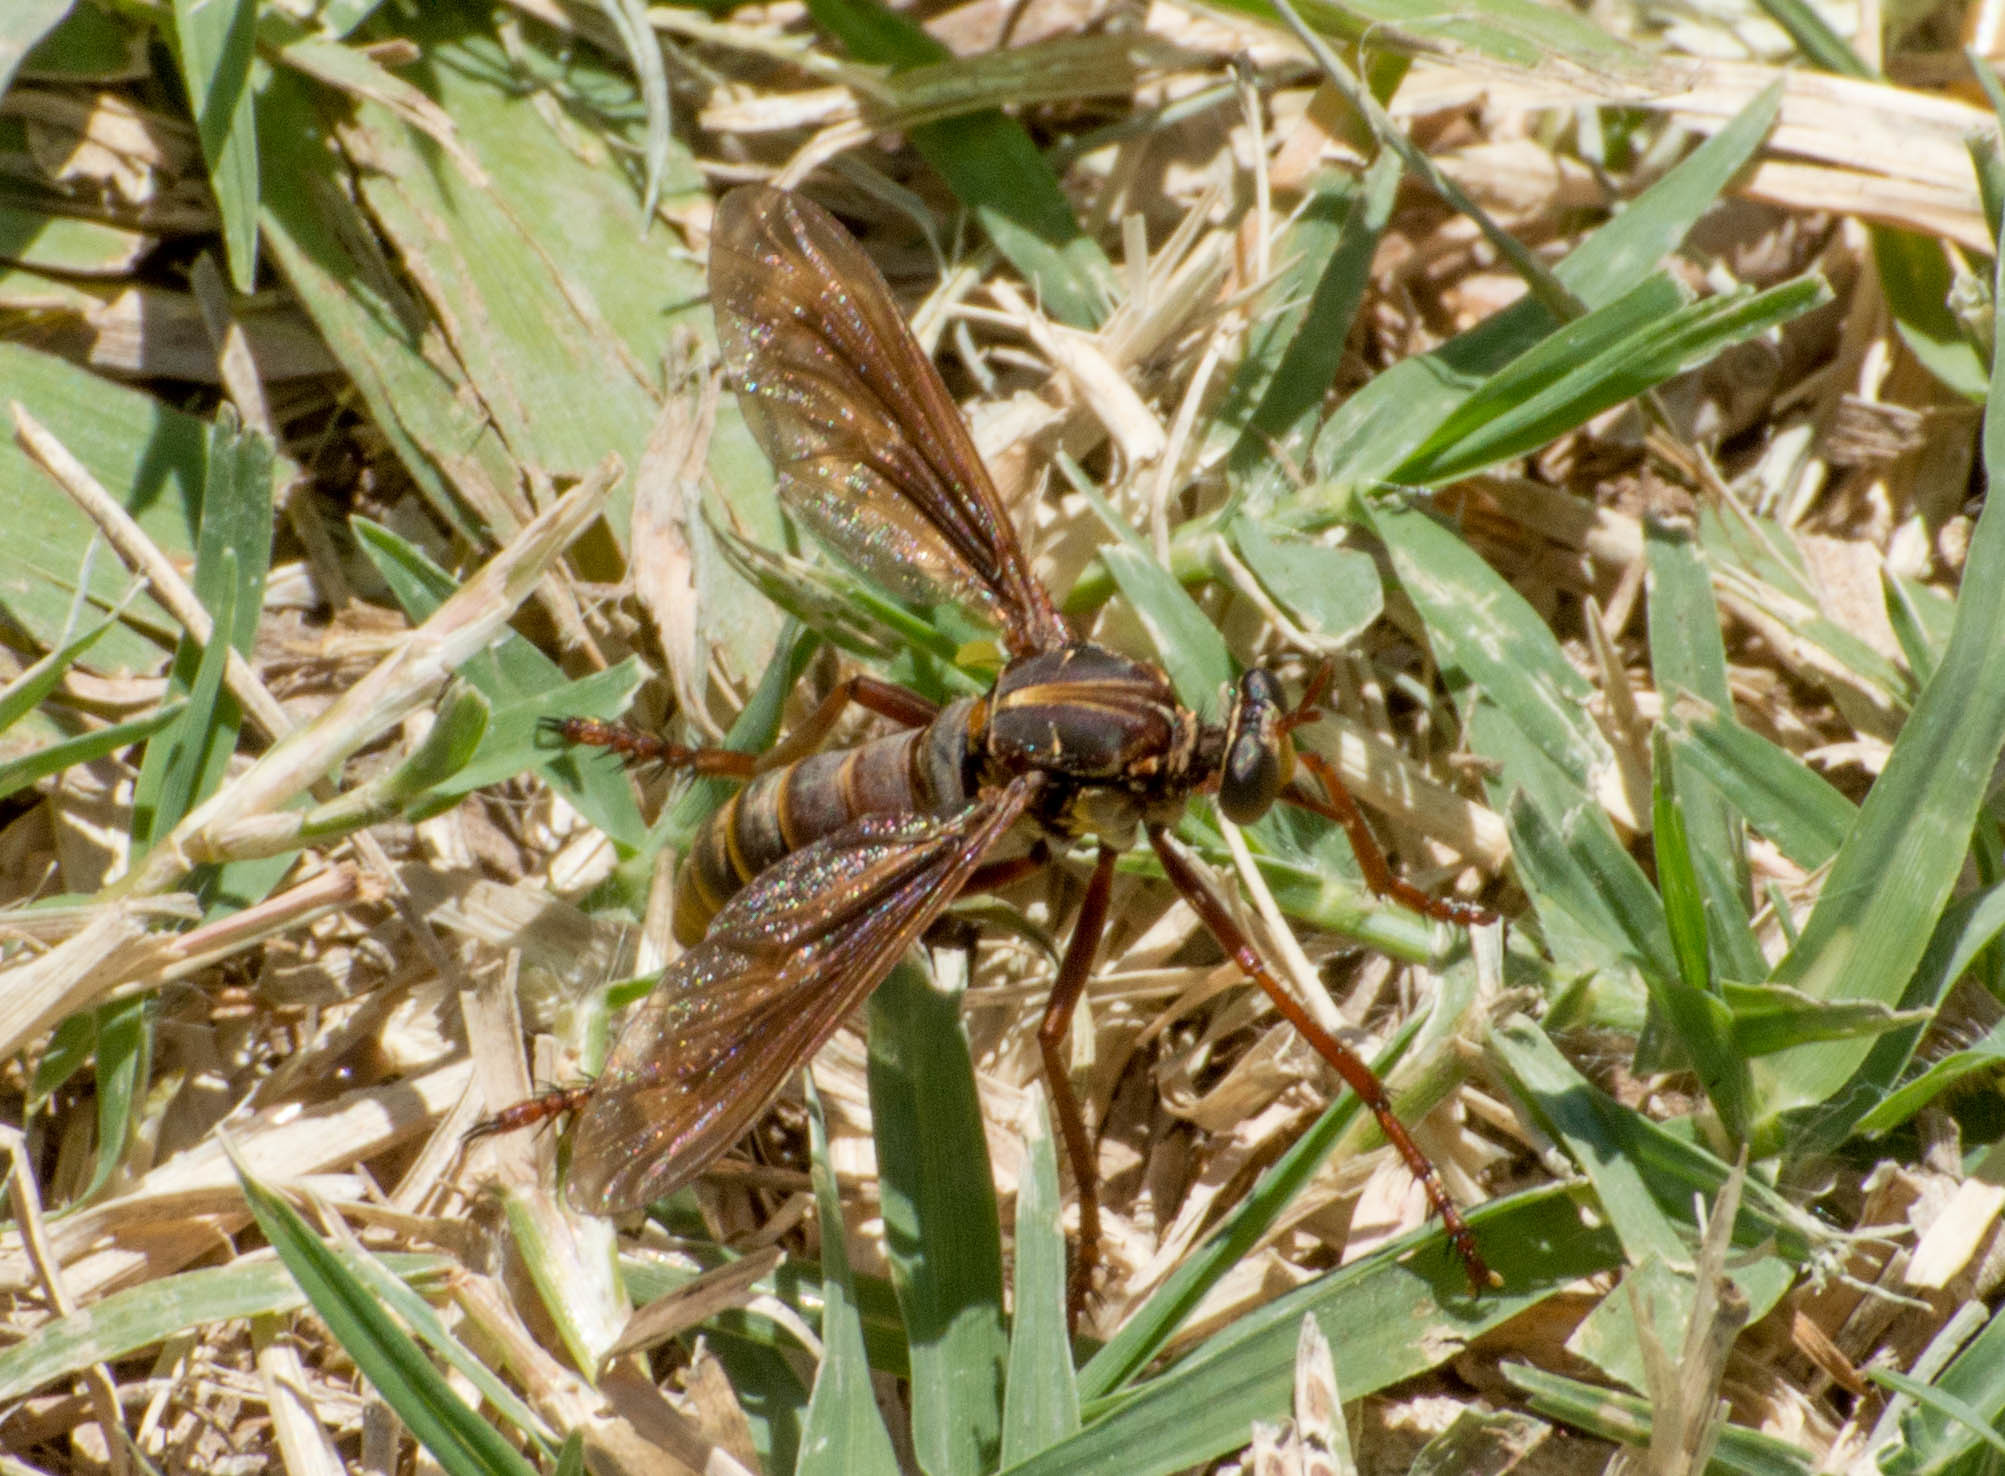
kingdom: Animalia
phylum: Arthropoda
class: Insecta
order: Diptera
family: Asilidae
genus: Blepharepium
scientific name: Blepharepium cajennense
